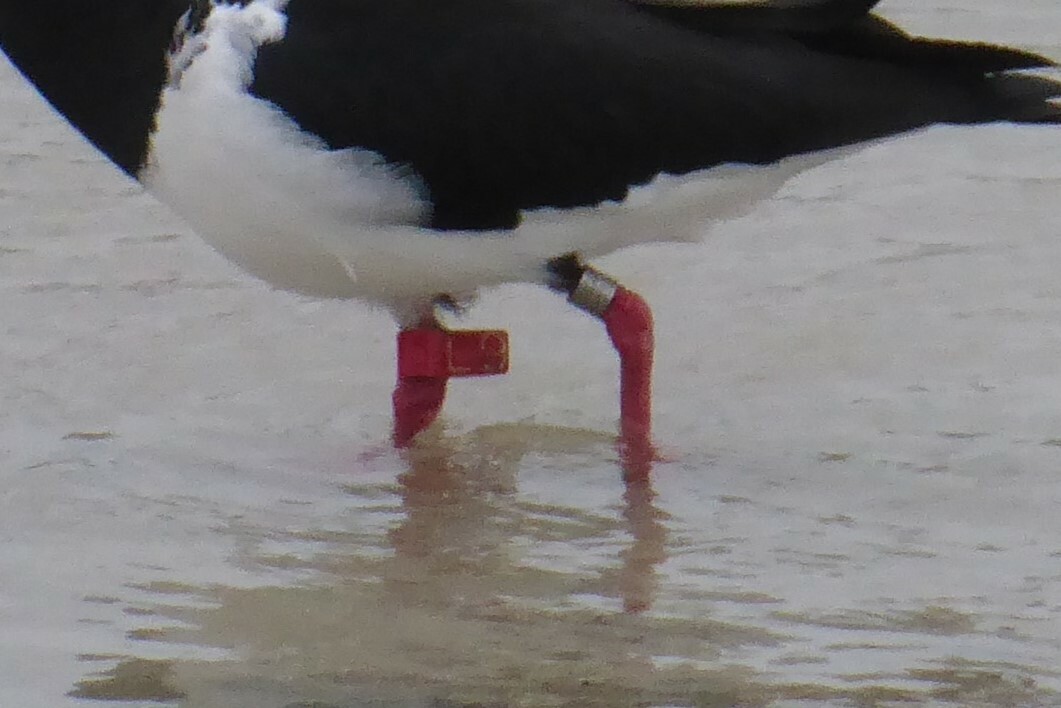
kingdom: Animalia
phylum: Chordata
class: Aves
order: Charadriiformes
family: Haematopodidae
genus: Haematopus
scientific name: Haematopus longirostris
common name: Pied oystercatcher
